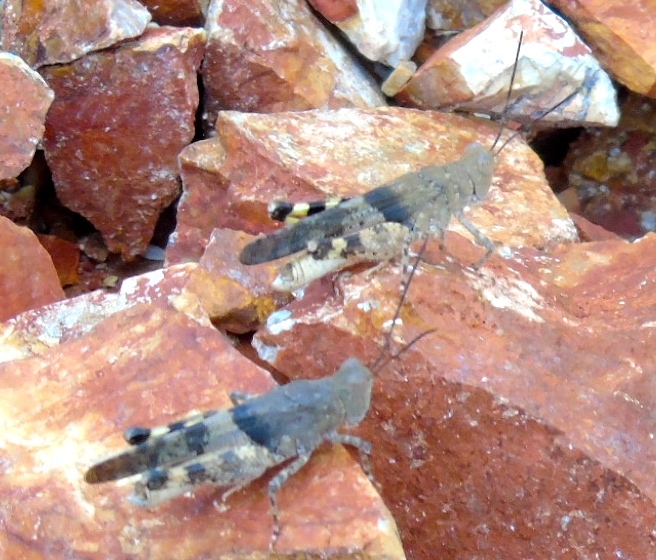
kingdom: Animalia
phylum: Arthropoda
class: Insecta
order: Orthoptera
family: Acrididae
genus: Heliastus
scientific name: Heliastus benjamini
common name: Arroyo grasshopper
